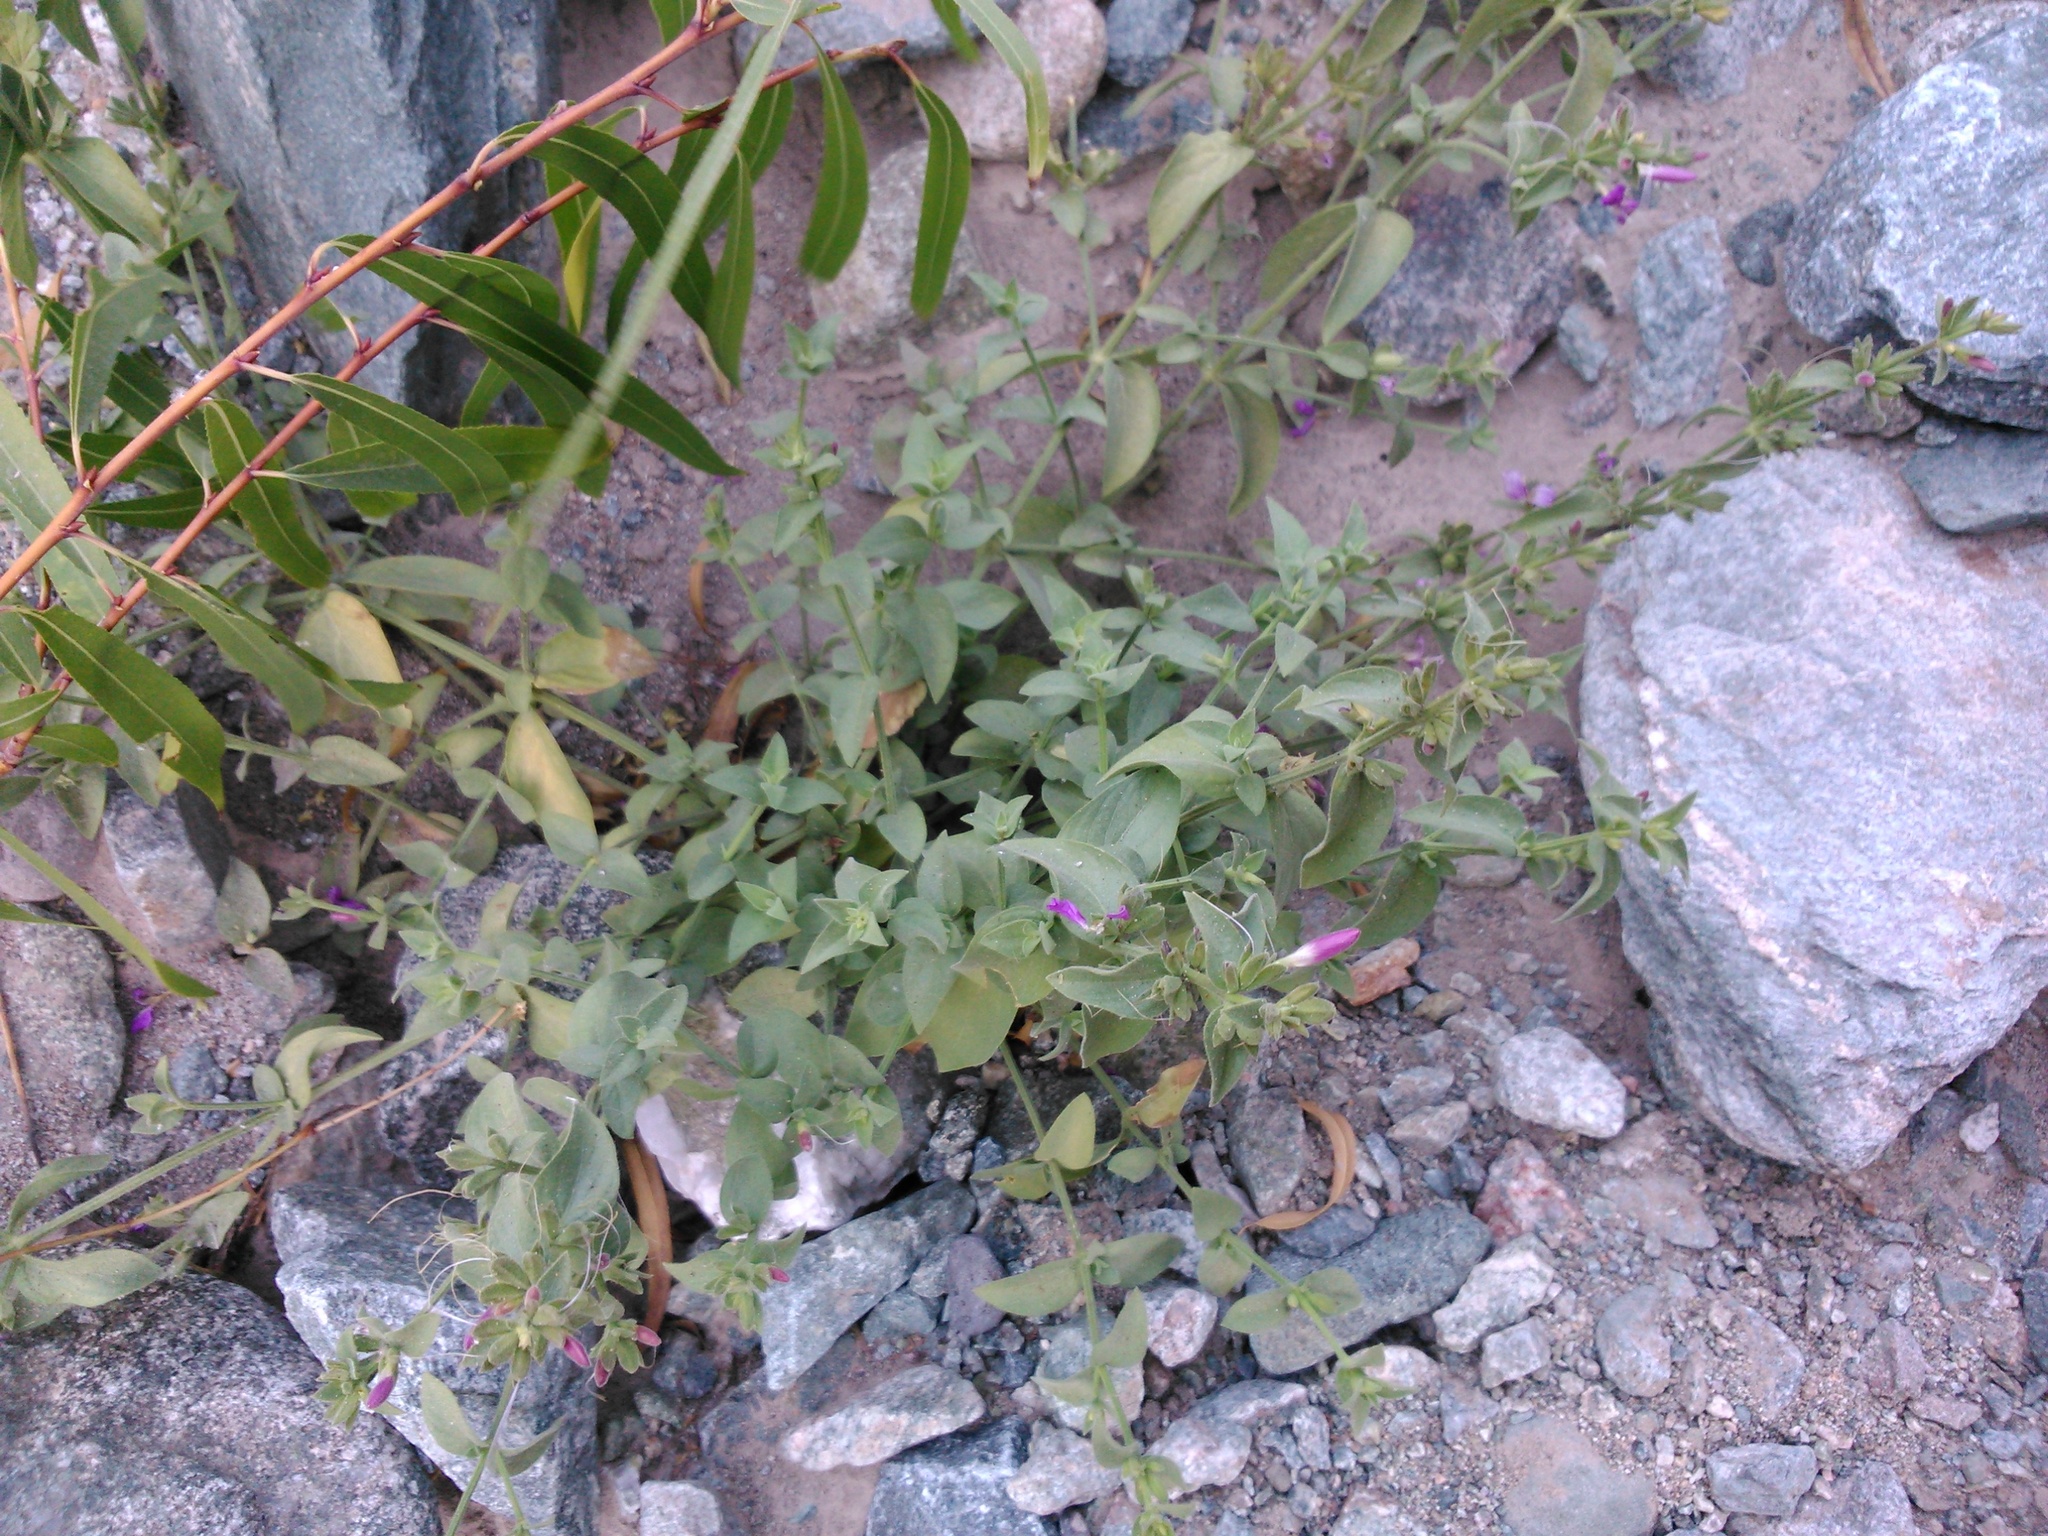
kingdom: Plantae
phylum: Tracheophyta
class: Magnoliopsida
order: Lamiales
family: Acanthaceae
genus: Dicliptera
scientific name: Dicliptera tomentosa
